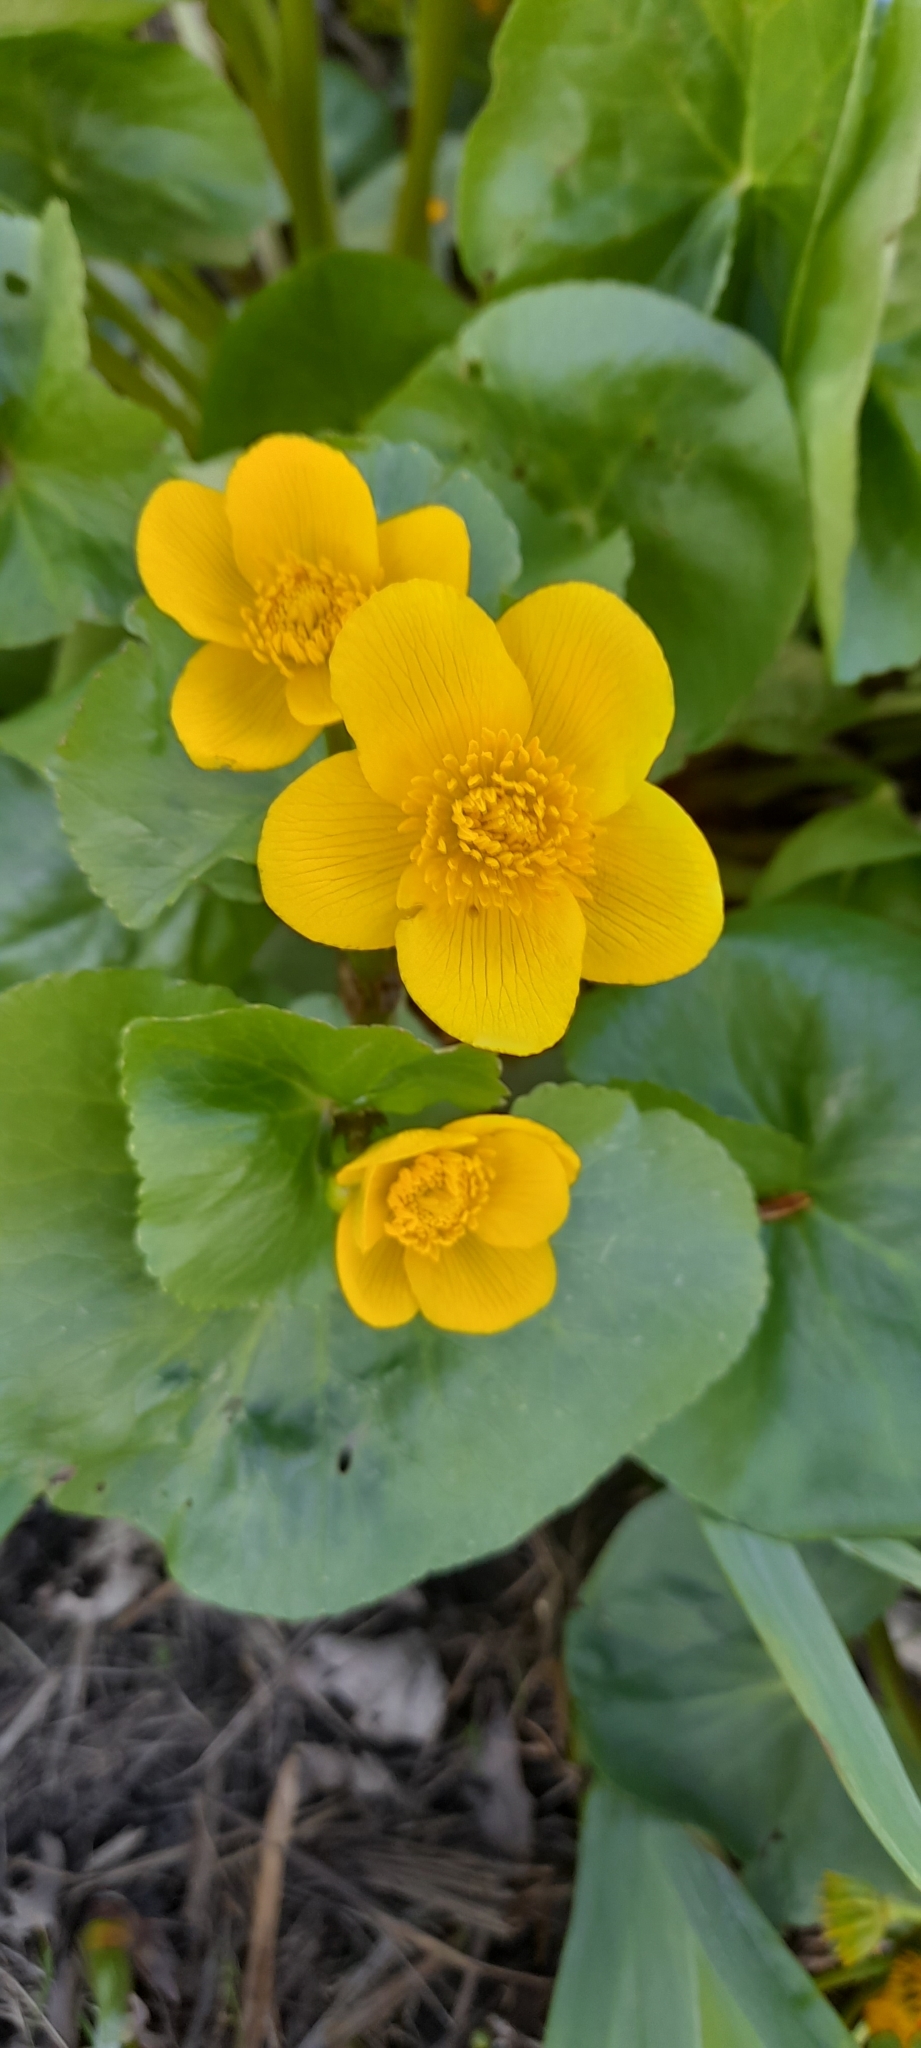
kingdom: Plantae
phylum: Tracheophyta
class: Magnoliopsida
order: Ranunculales
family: Ranunculaceae
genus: Caltha
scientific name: Caltha palustris
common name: Marsh marigold
